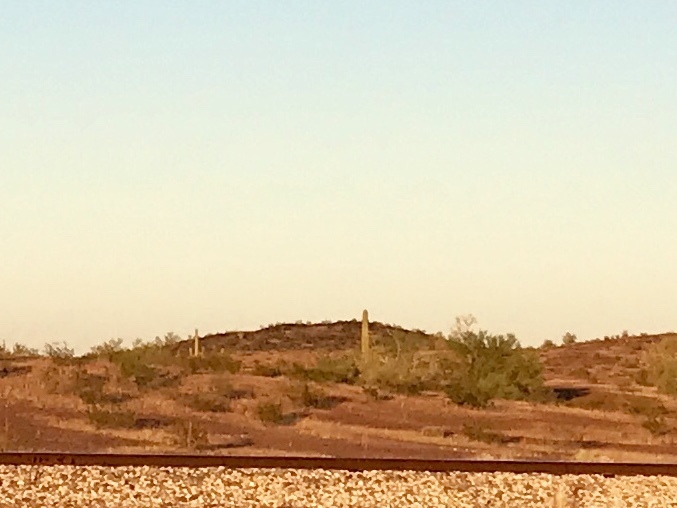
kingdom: Plantae
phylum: Tracheophyta
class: Magnoliopsida
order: Caryophyllales
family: Cactaceae
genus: Carnegiea
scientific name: Carnegiea gigantea
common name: Saguaro
